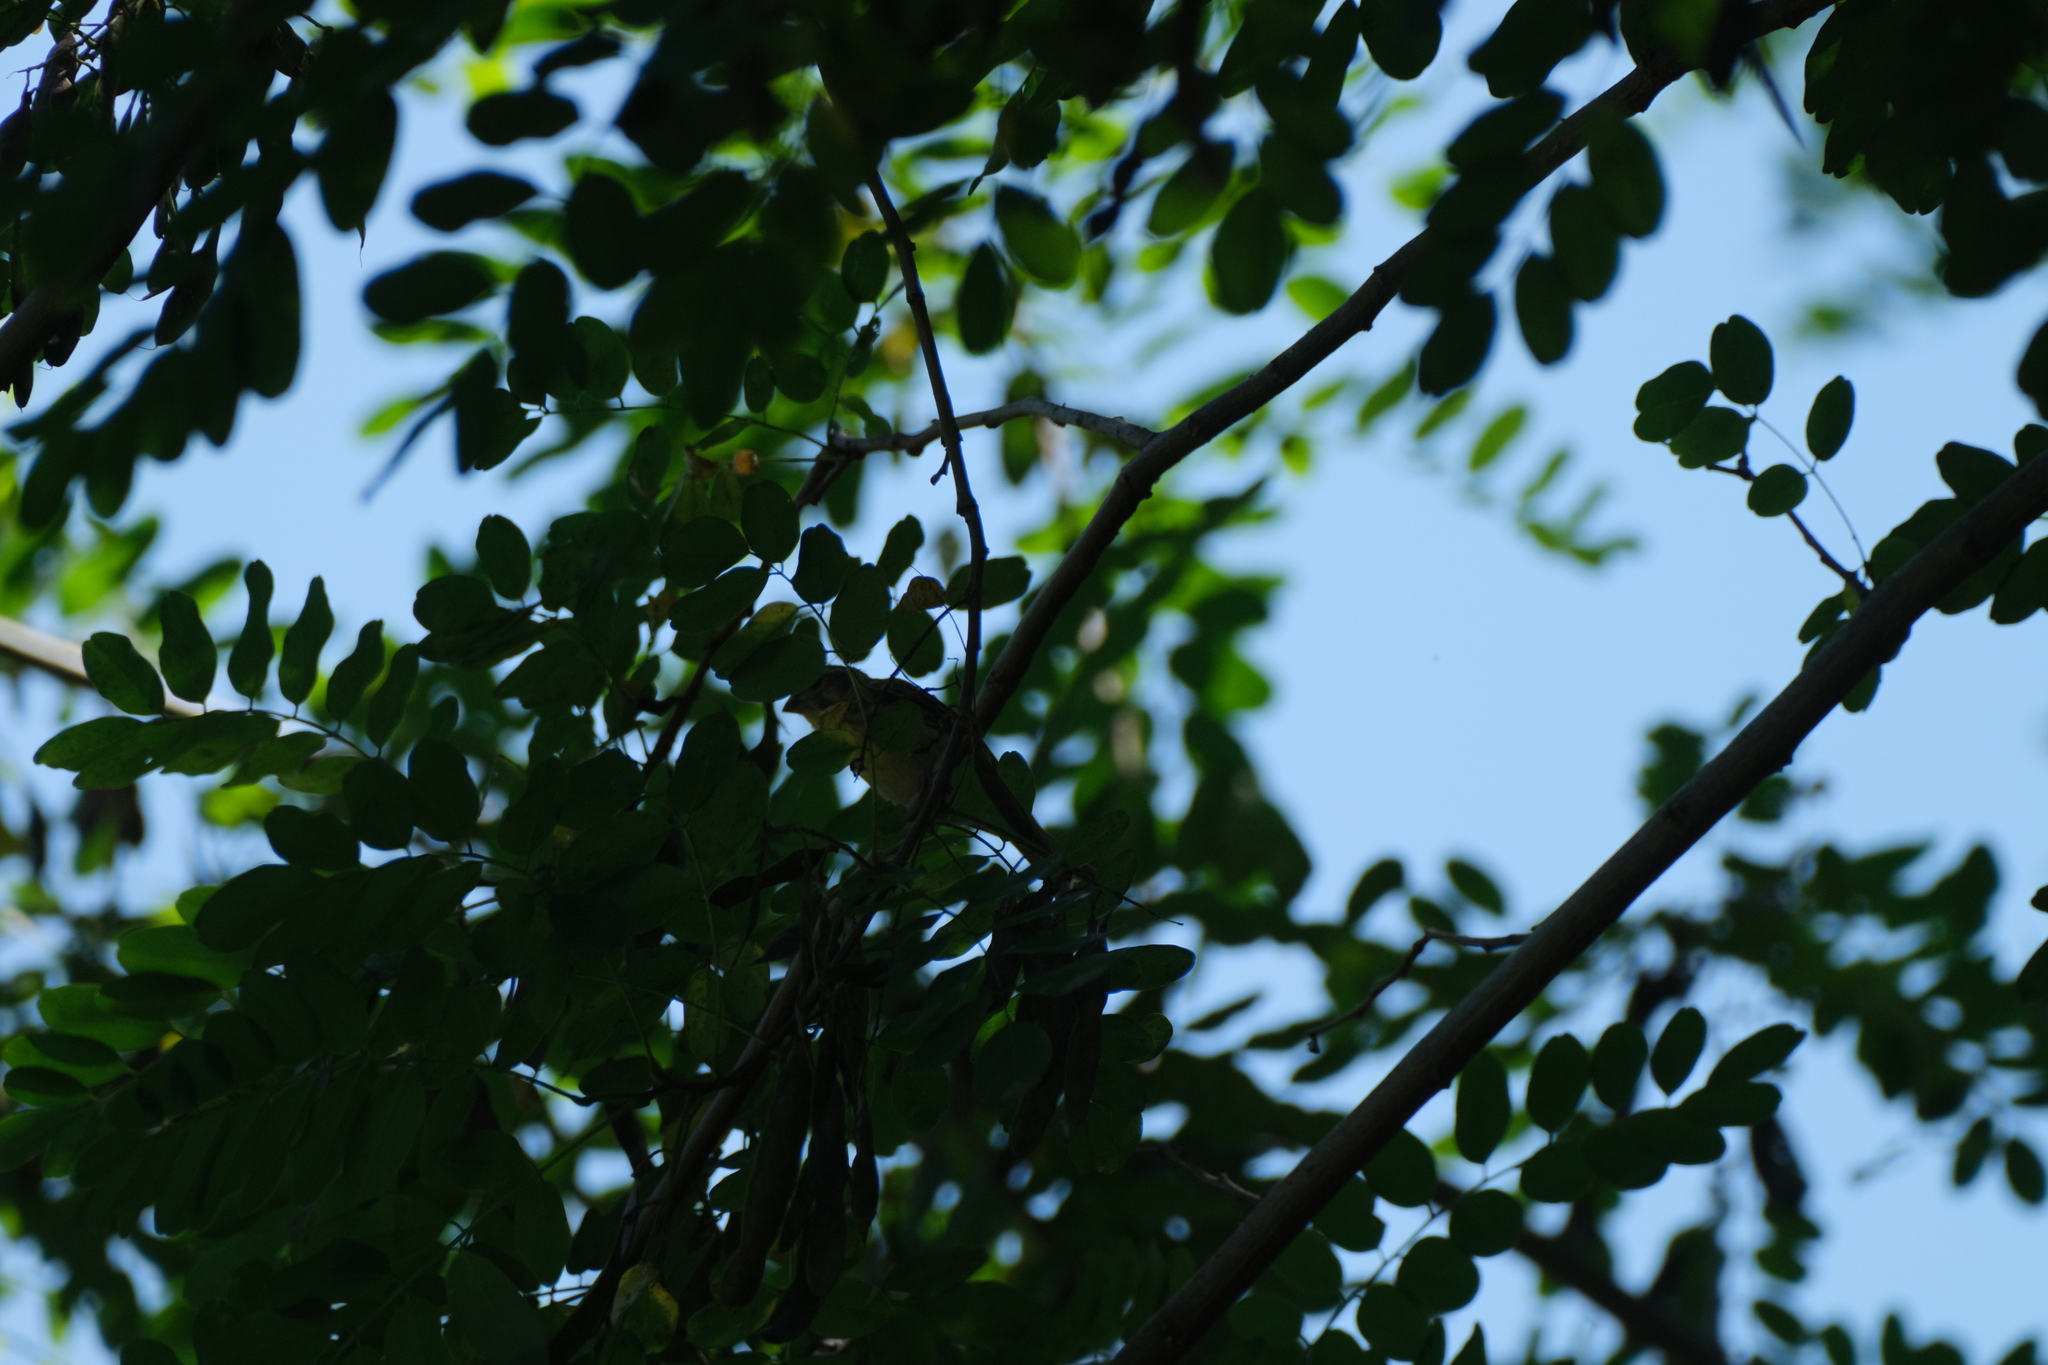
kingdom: Animalia
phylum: Chordata
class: Aves
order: Passeriformes
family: Fringillidae
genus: Serinus
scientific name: Serinus serinus
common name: European serin
